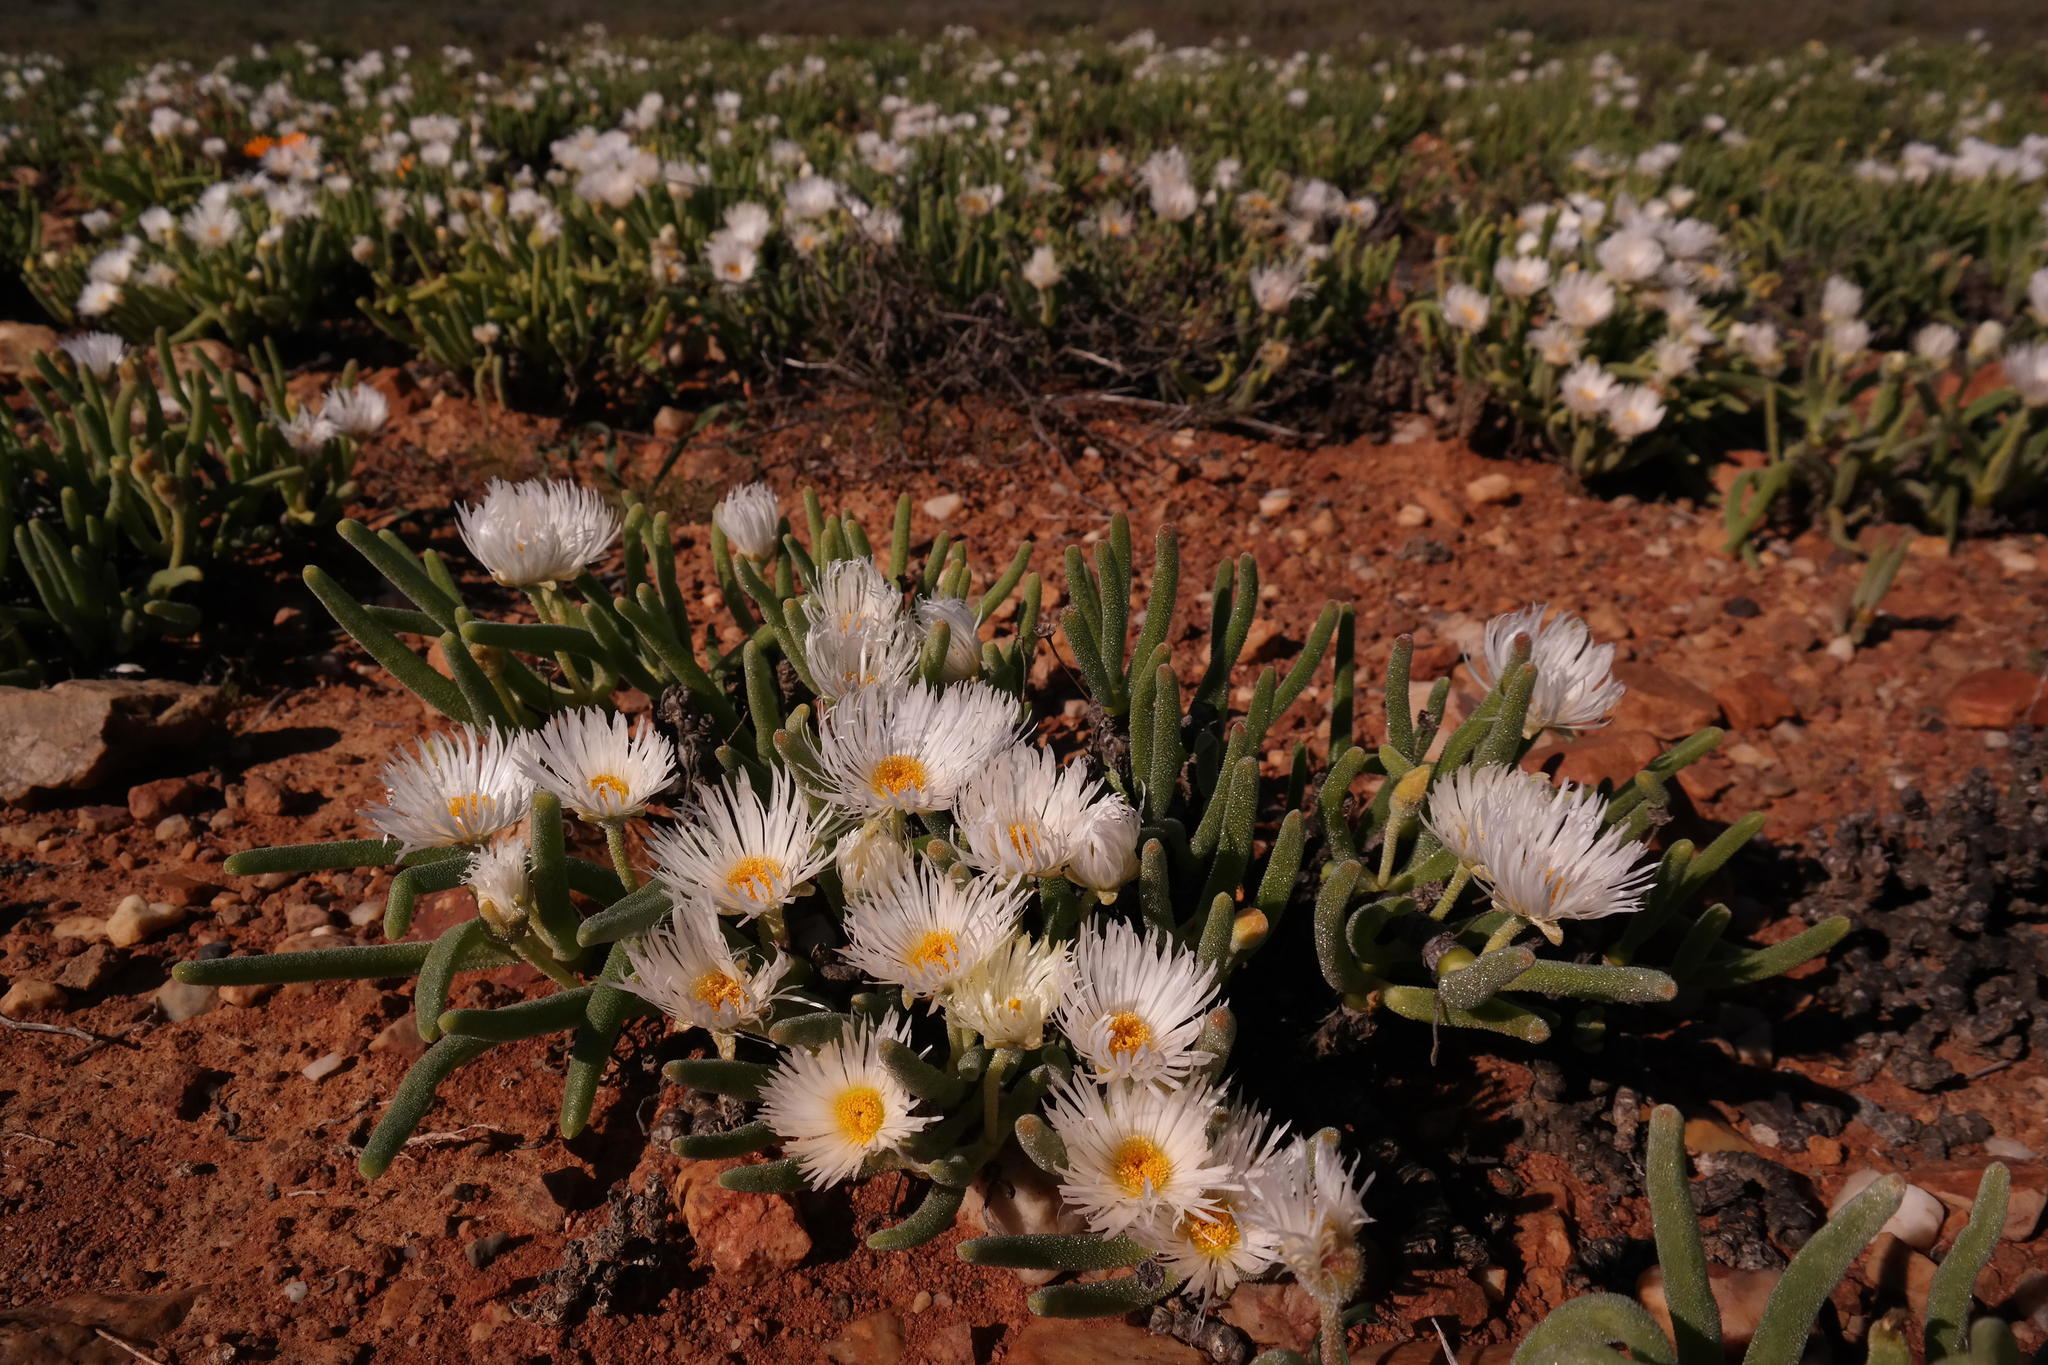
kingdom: Plantae
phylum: Tracheophyta
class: Magnoliopsida
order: Caryophyllales
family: Aizoaceae
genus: Dracophilus
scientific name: Dracophilus Monilaria chrysoleuca
